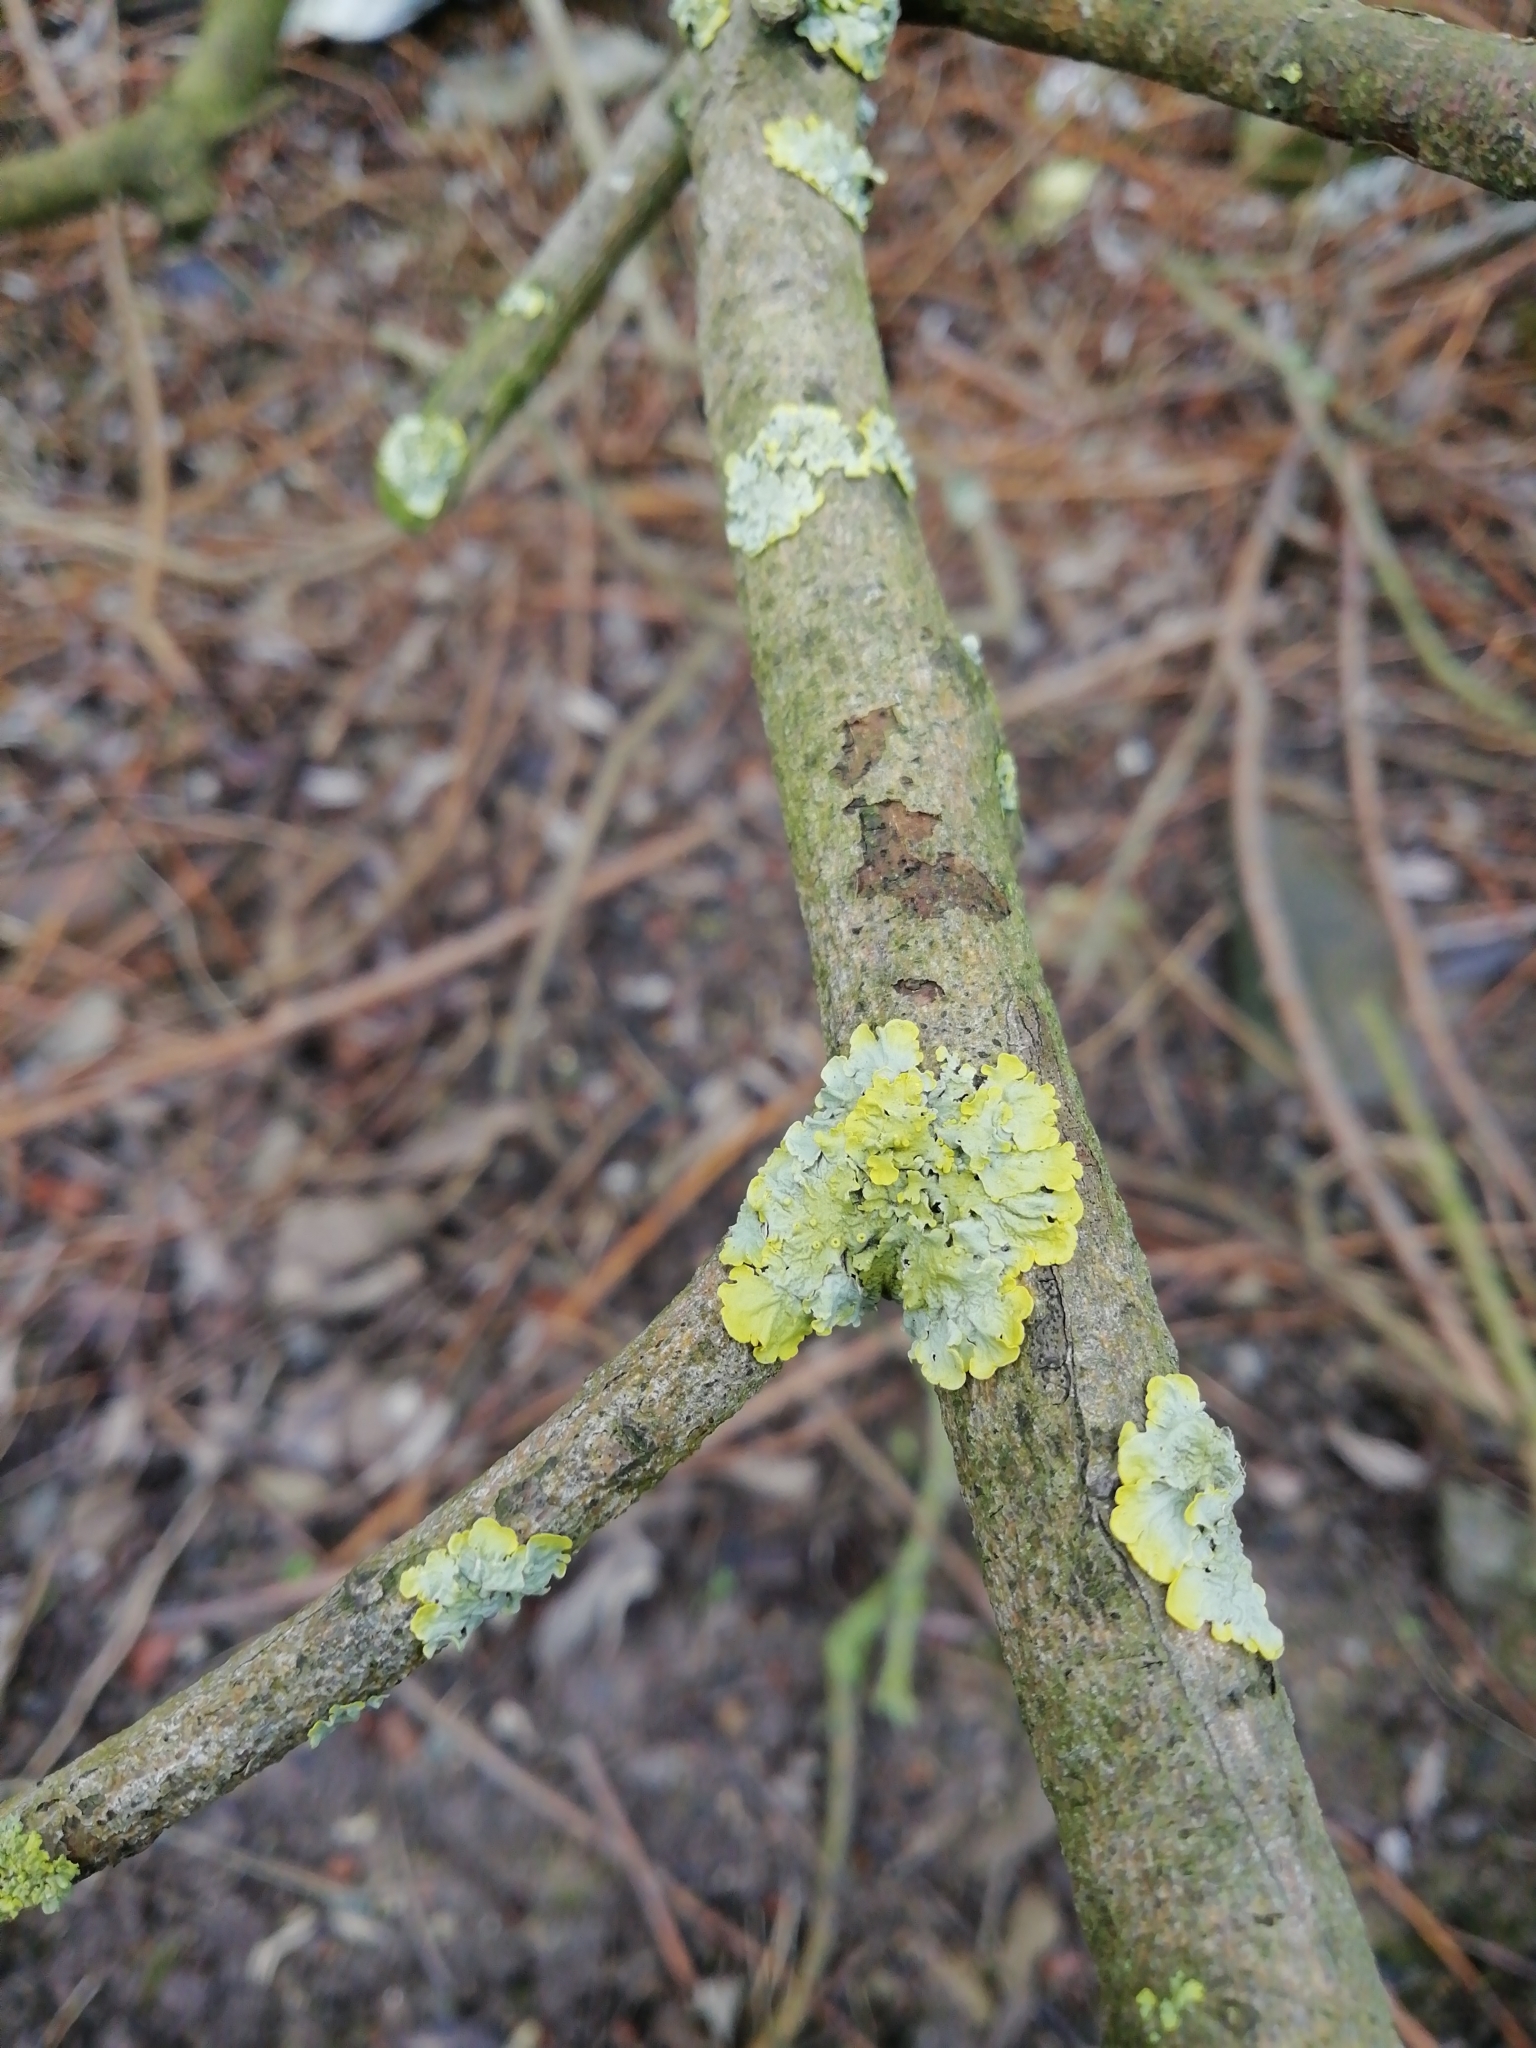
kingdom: Fungi
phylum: Ascomycota
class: Lecanoromycetes
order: Teloschistales
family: Teloschistaceae
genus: Xanthoria
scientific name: Xanthoria parietina
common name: Common orange lichen
